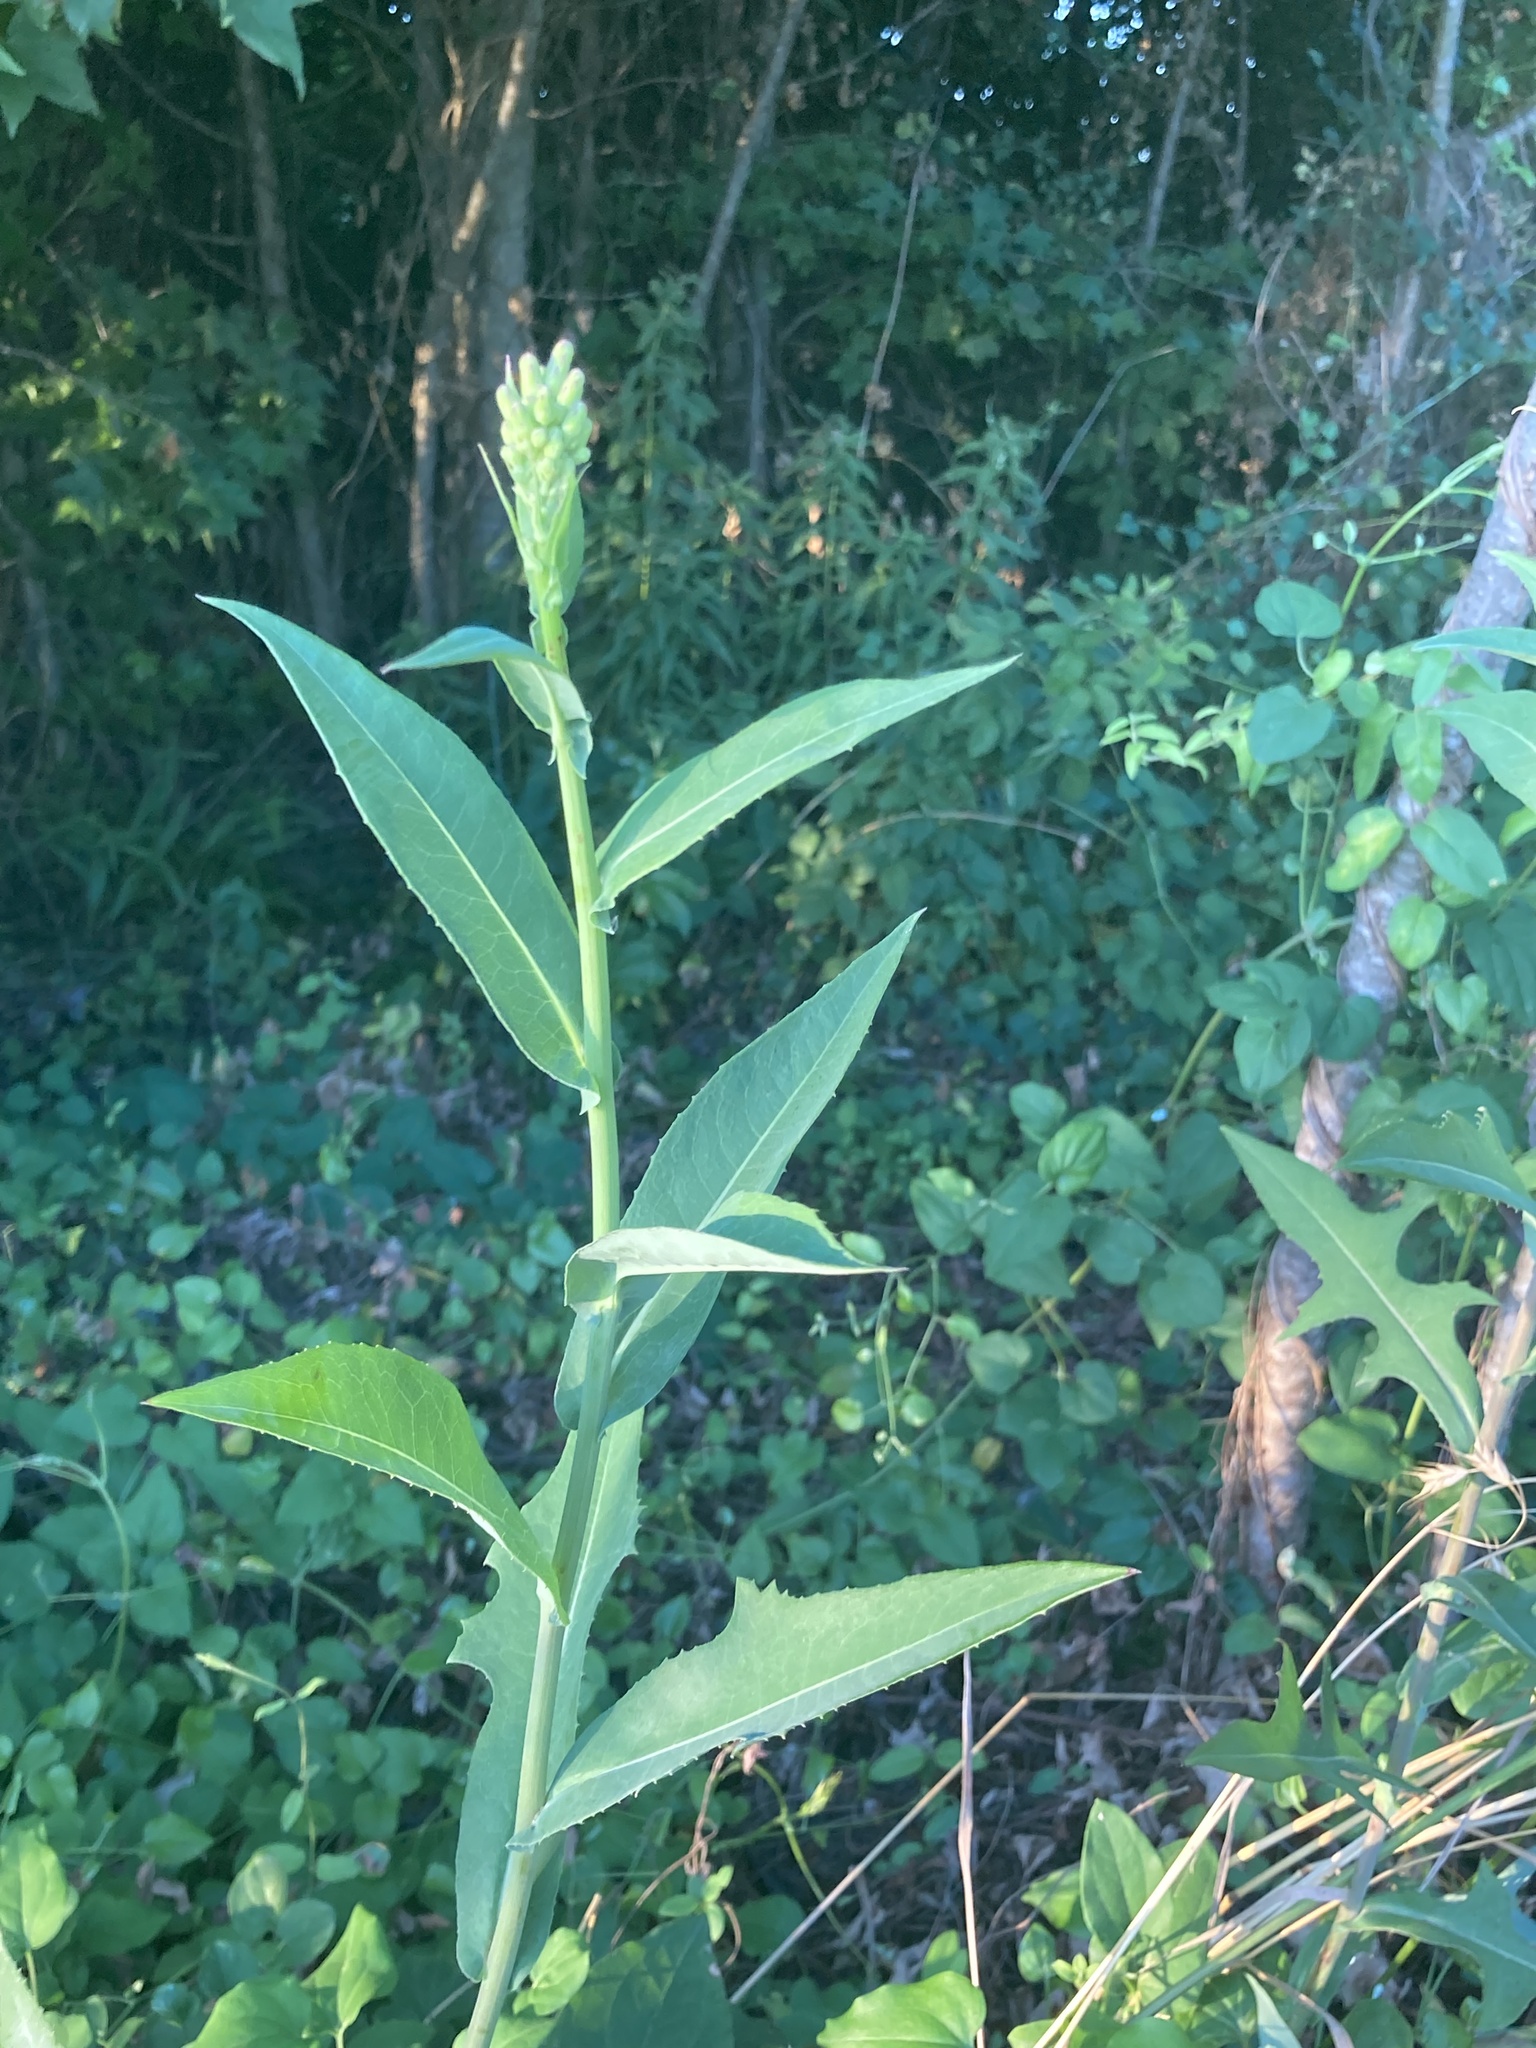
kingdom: Plantae
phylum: Tracheophyta
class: Magnoliopsida
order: Asterales
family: Asteraceae
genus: Lactuca
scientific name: Lactuca canadensis
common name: Canada lettuce
